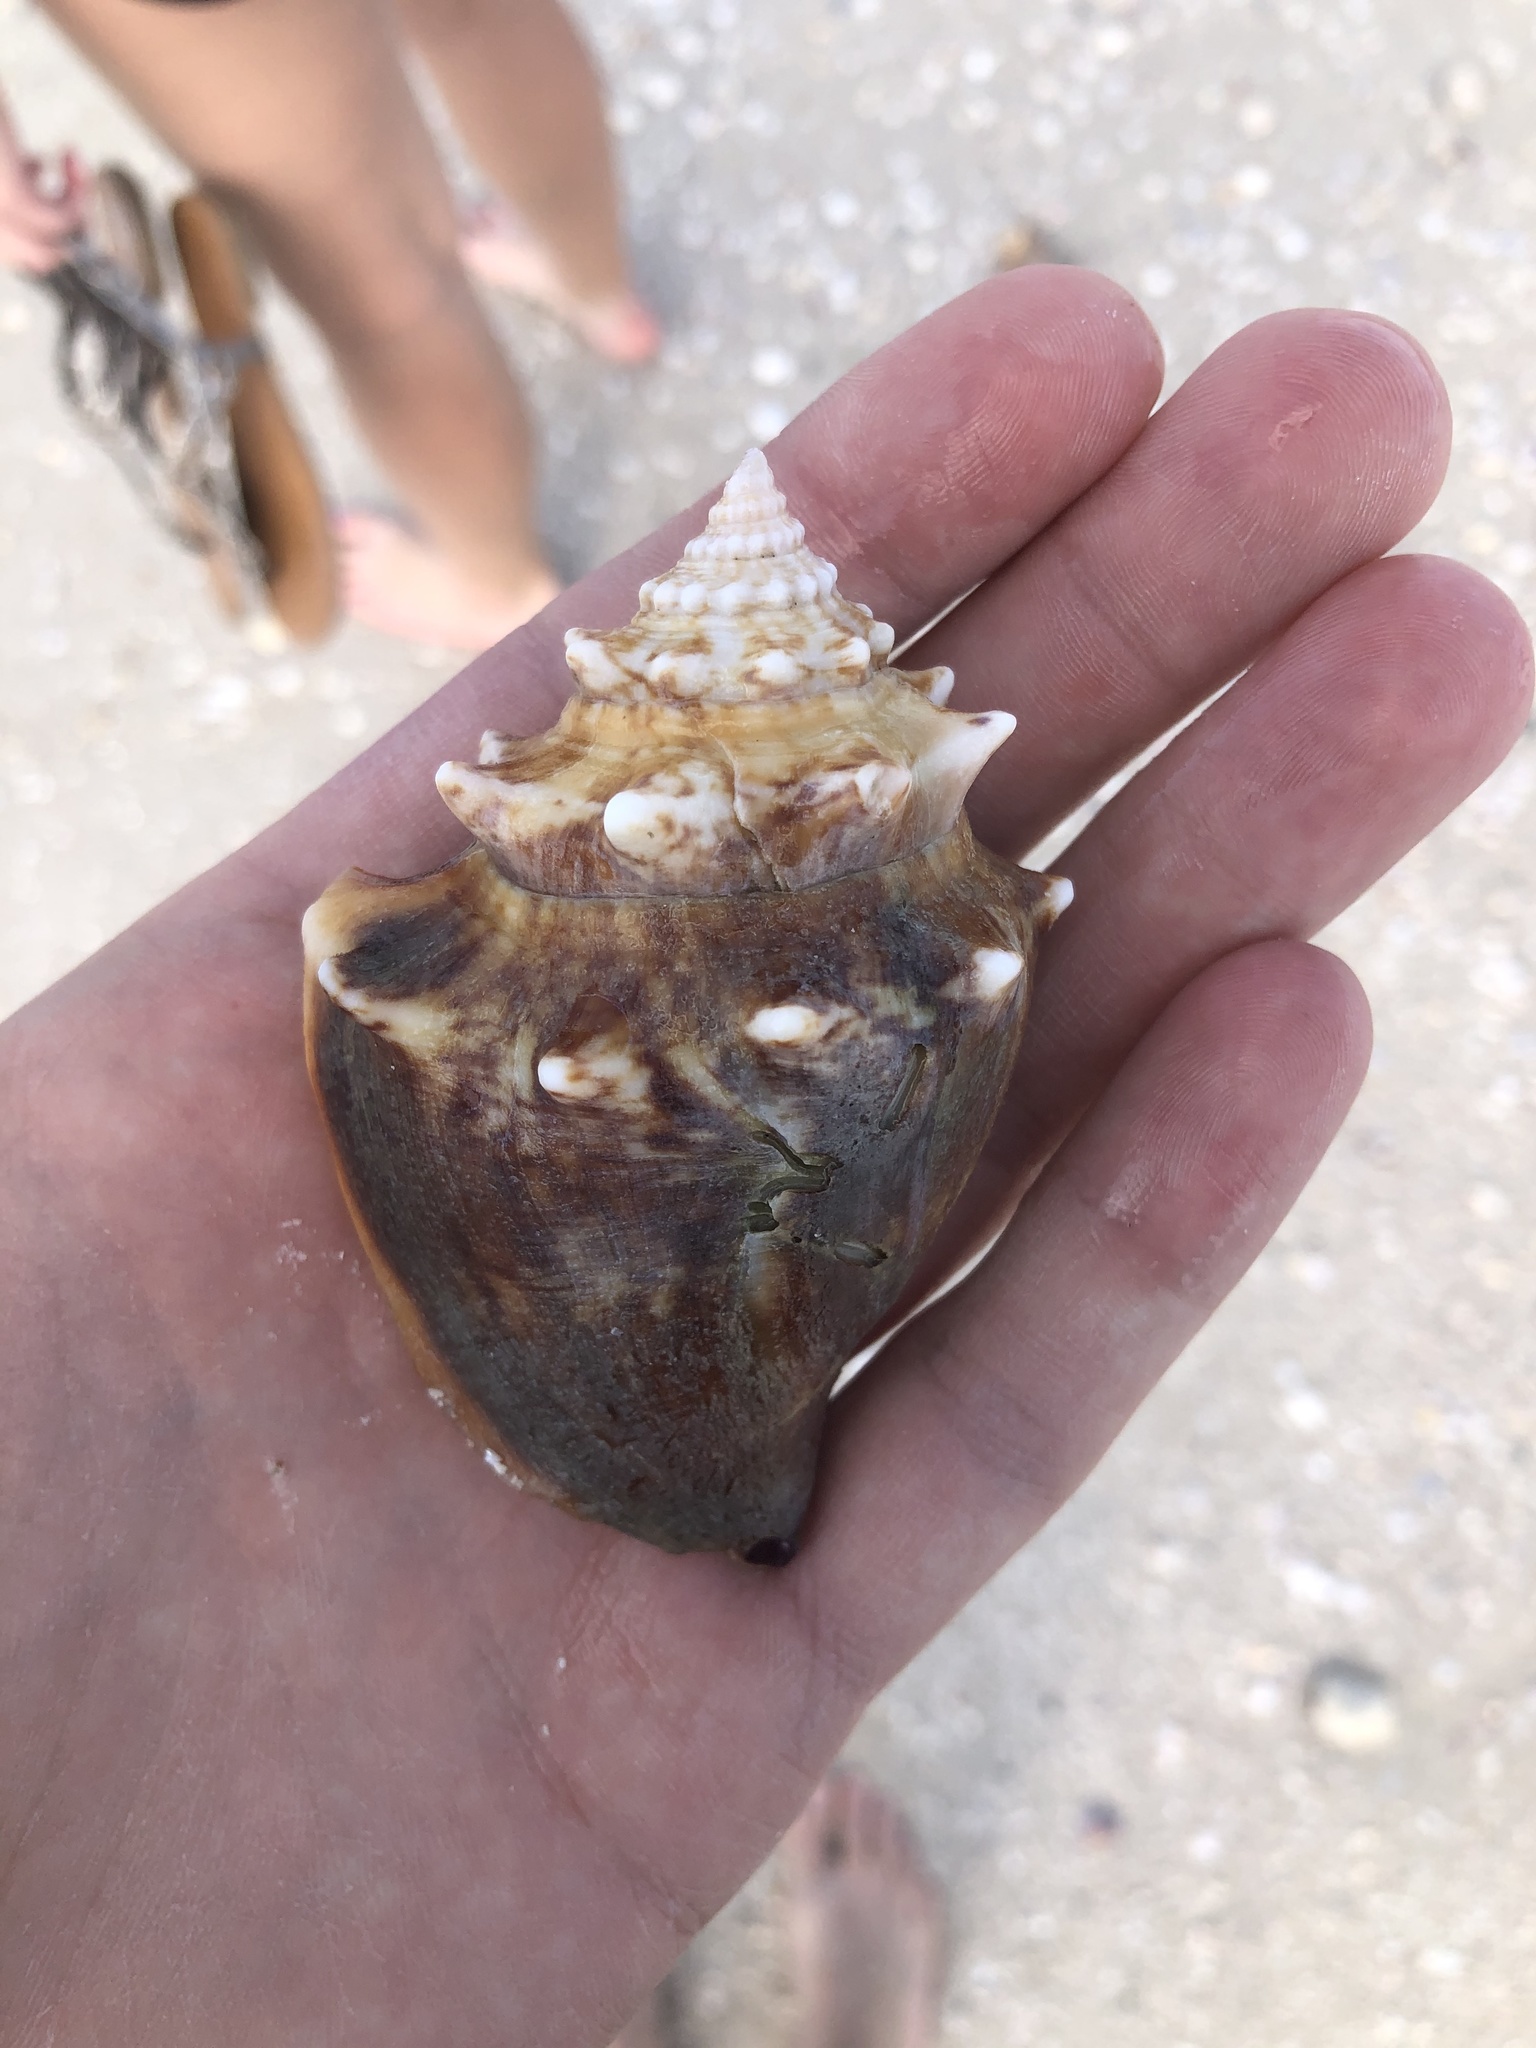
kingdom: Animalia
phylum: Mollusca
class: Gastropoda
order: Littorinimorpha
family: Strombidae
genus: Strombus
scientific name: Strombus alatus
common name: Florida fighting conch
